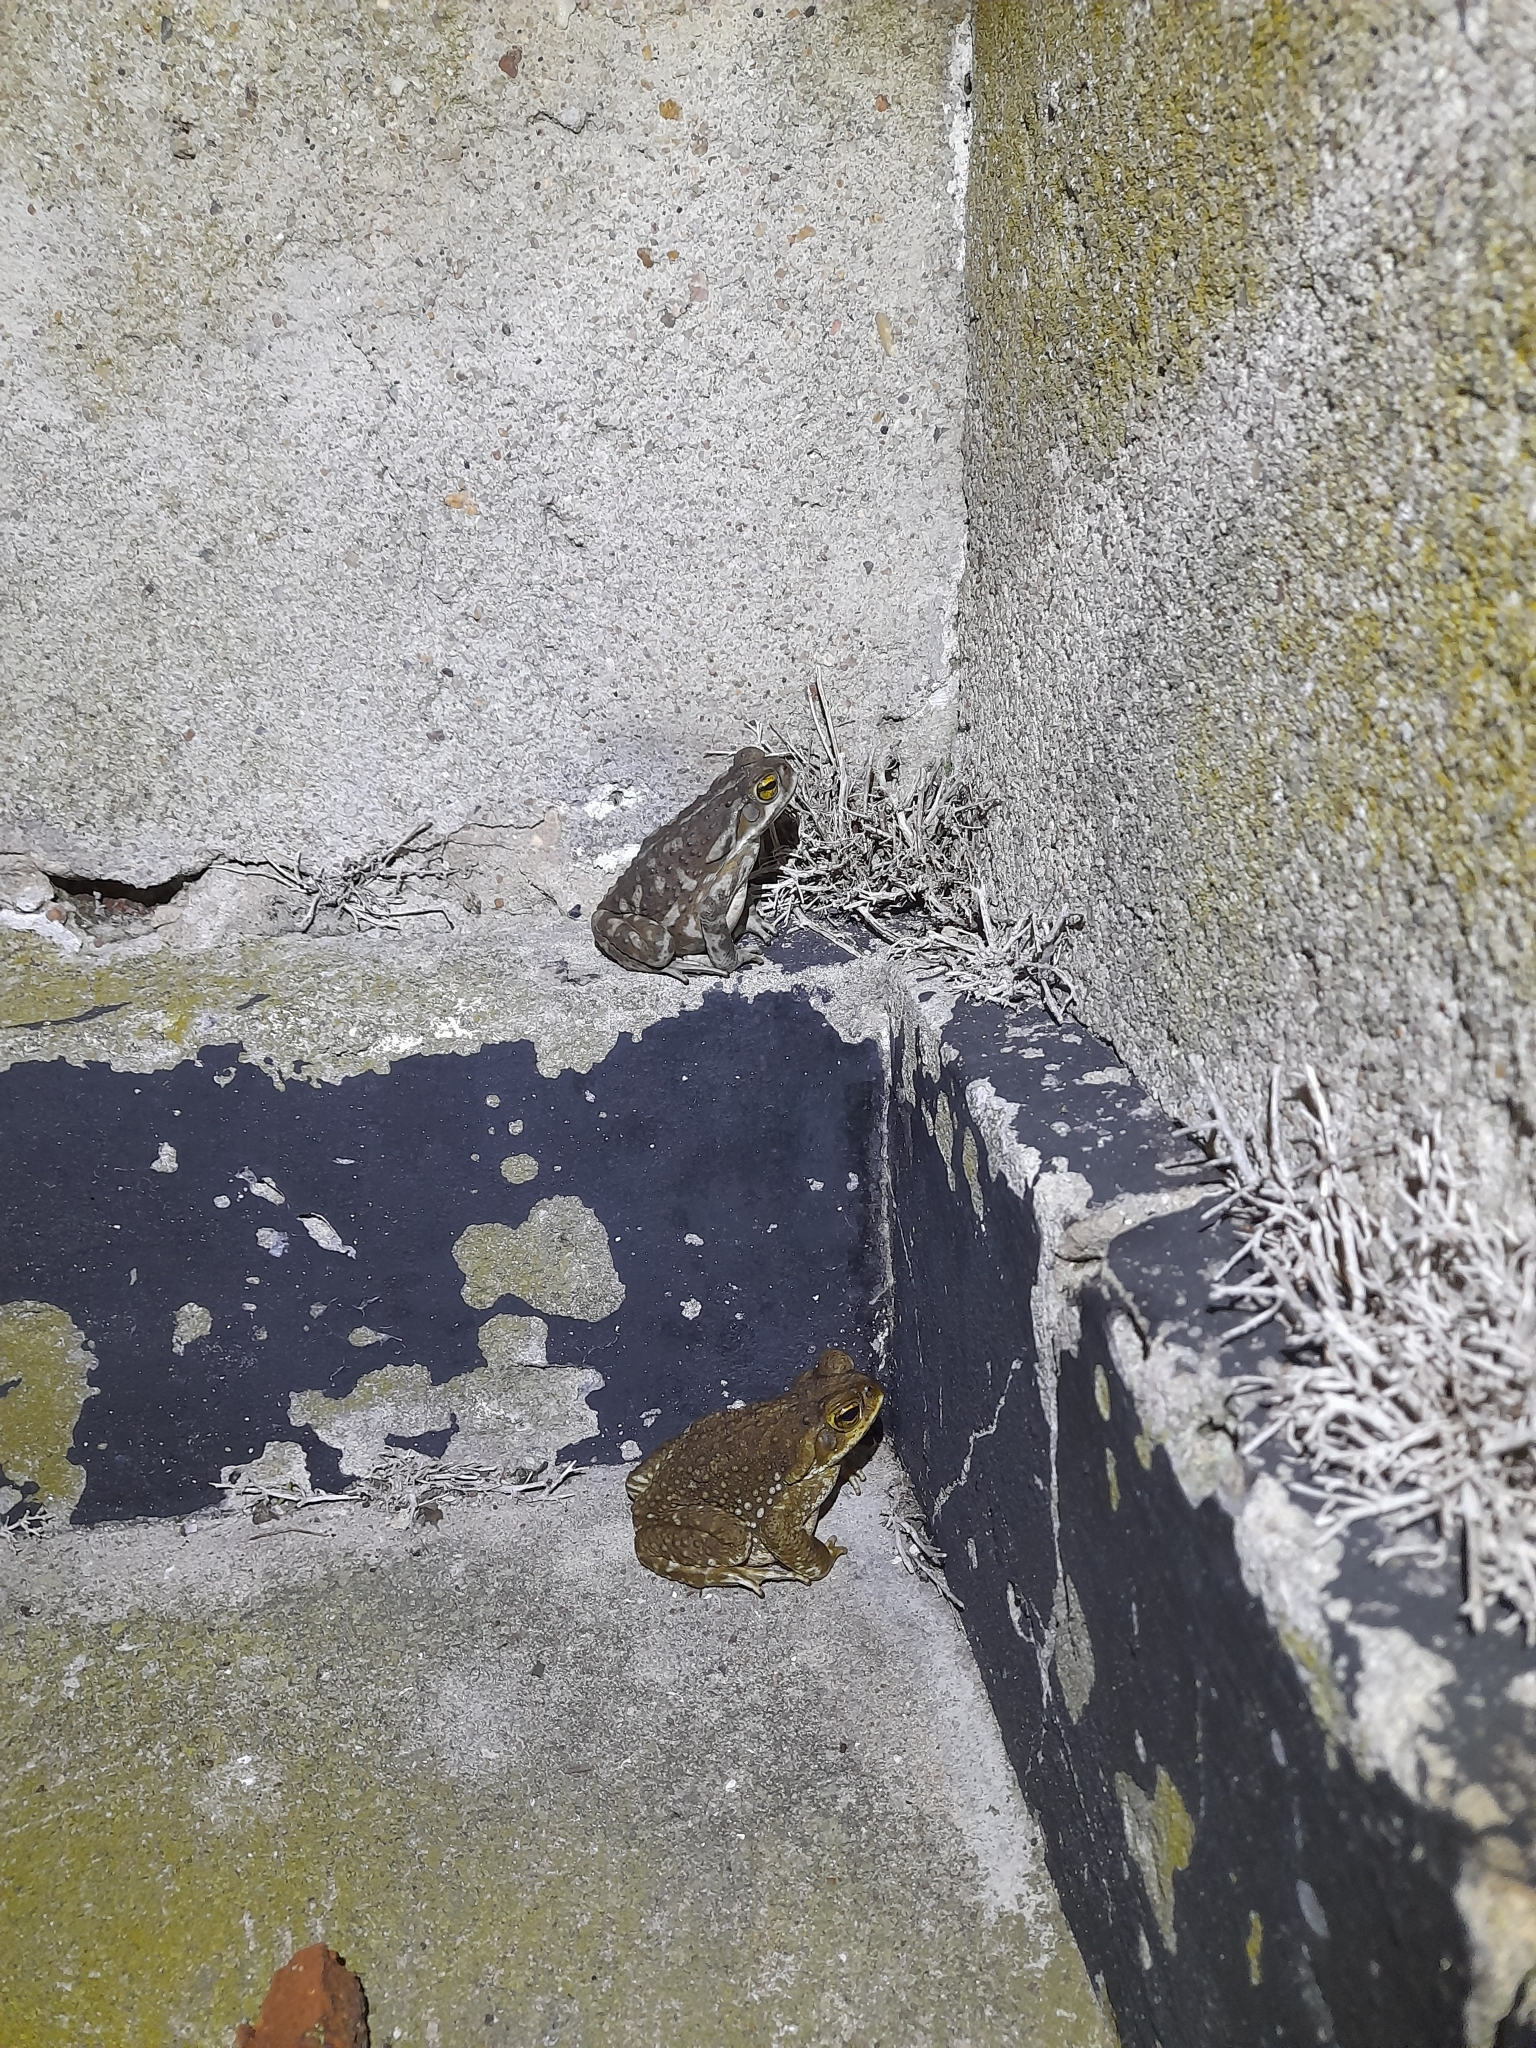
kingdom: Animalia
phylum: Chordata
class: Amphibia
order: Anura
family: Bufonidae
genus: Rhinella
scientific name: Rhinella arenarum
